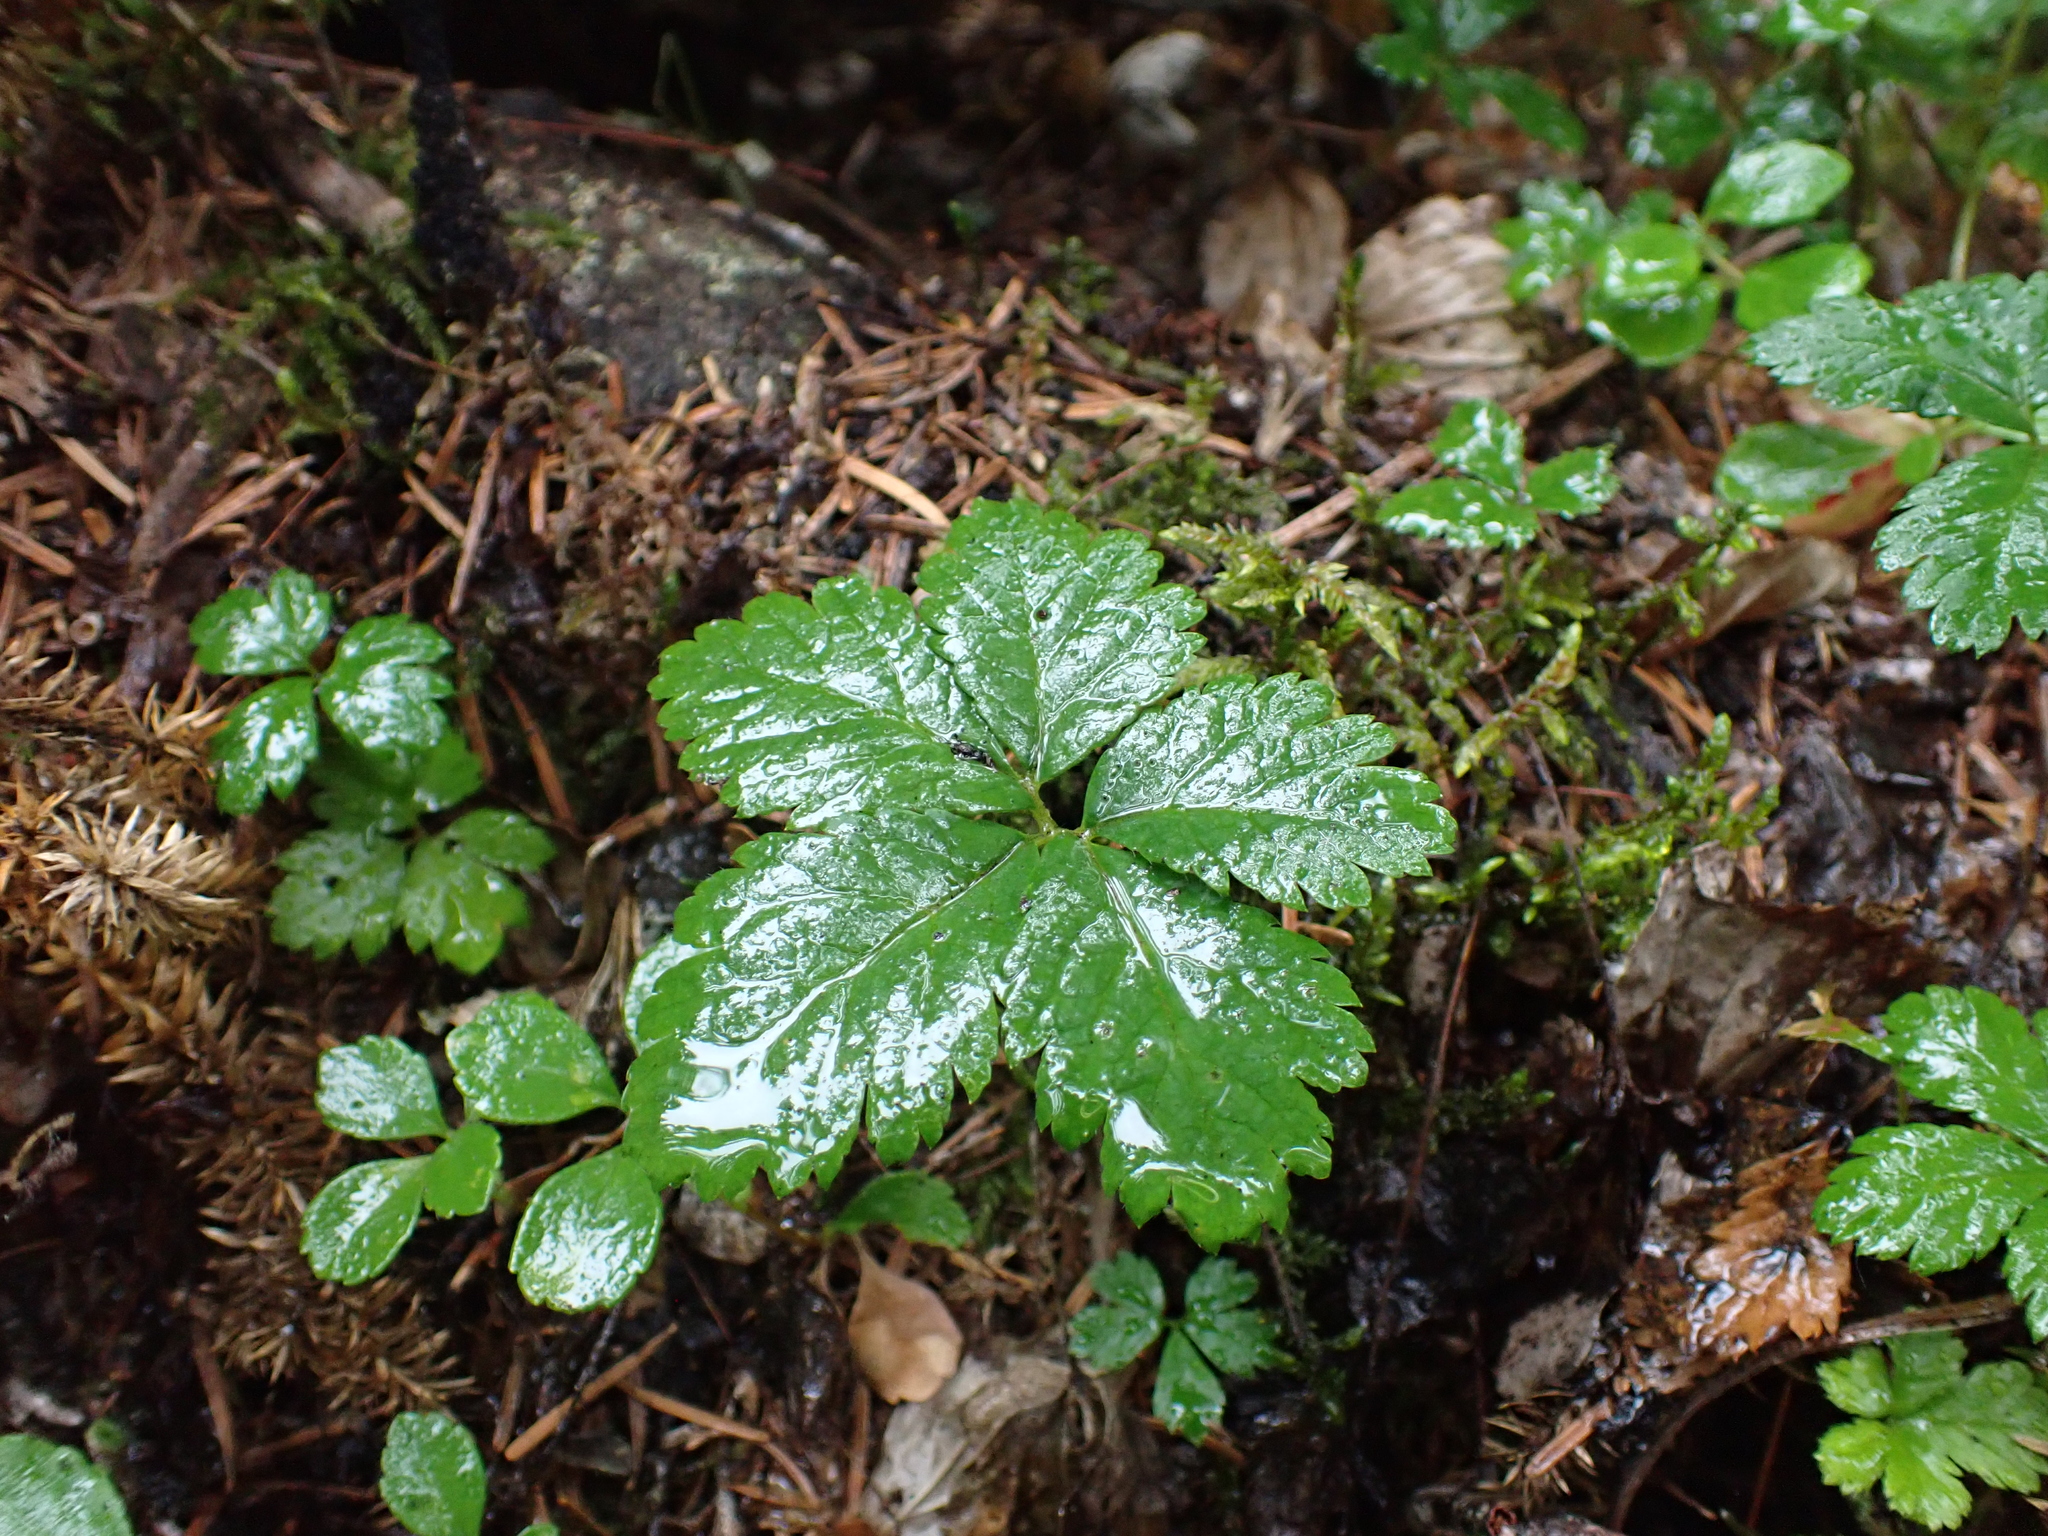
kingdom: Plantae
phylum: Tracheophyta
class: Magnoliopsida
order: Rosales
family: Rosaceae
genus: Rubus
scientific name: Rubus pedatus
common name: Creeping raspberry
